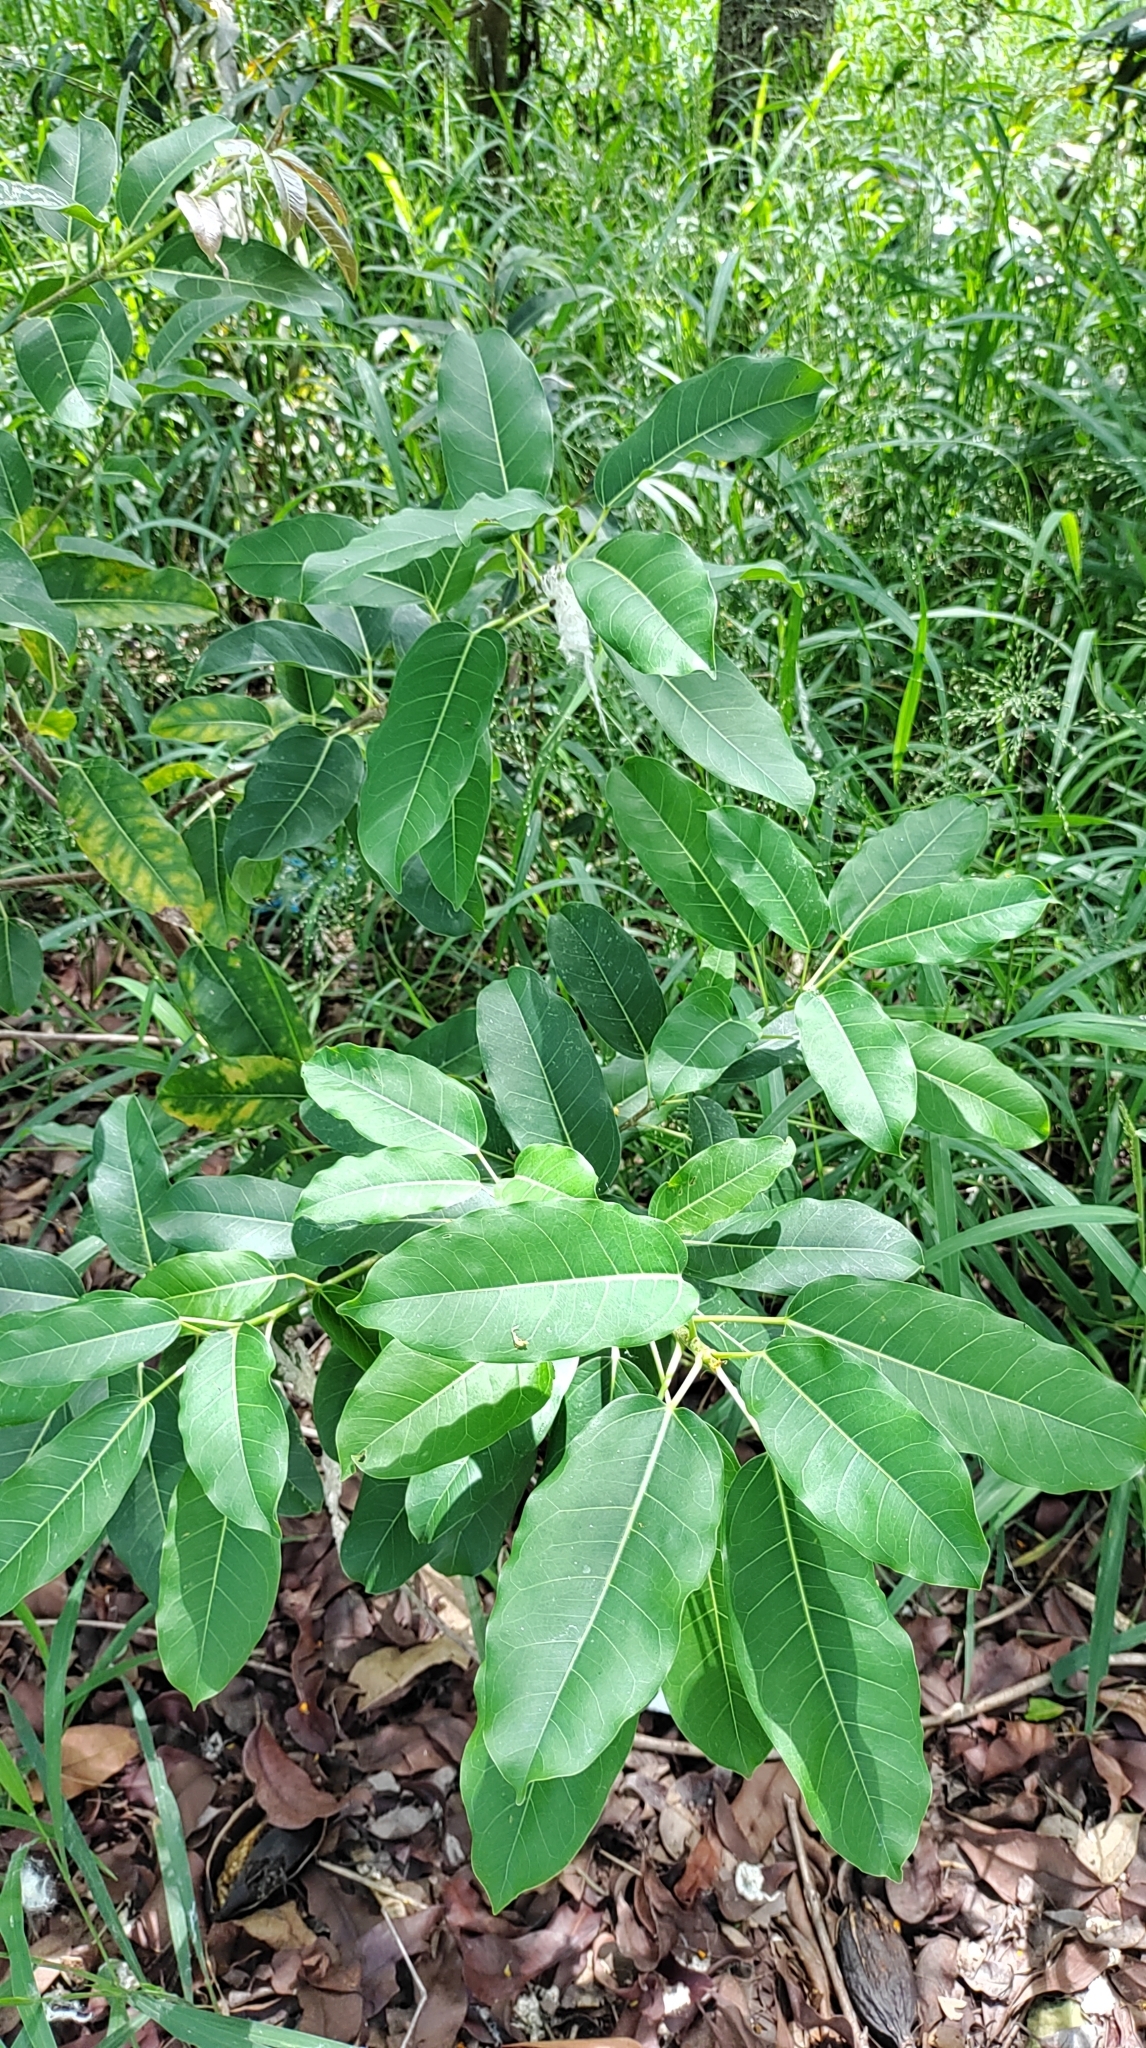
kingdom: Plantae
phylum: Tracheophyta
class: Magnoliopsida
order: Rosales
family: Moraceae
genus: Ficus
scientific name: Ficus subpisocarpa
